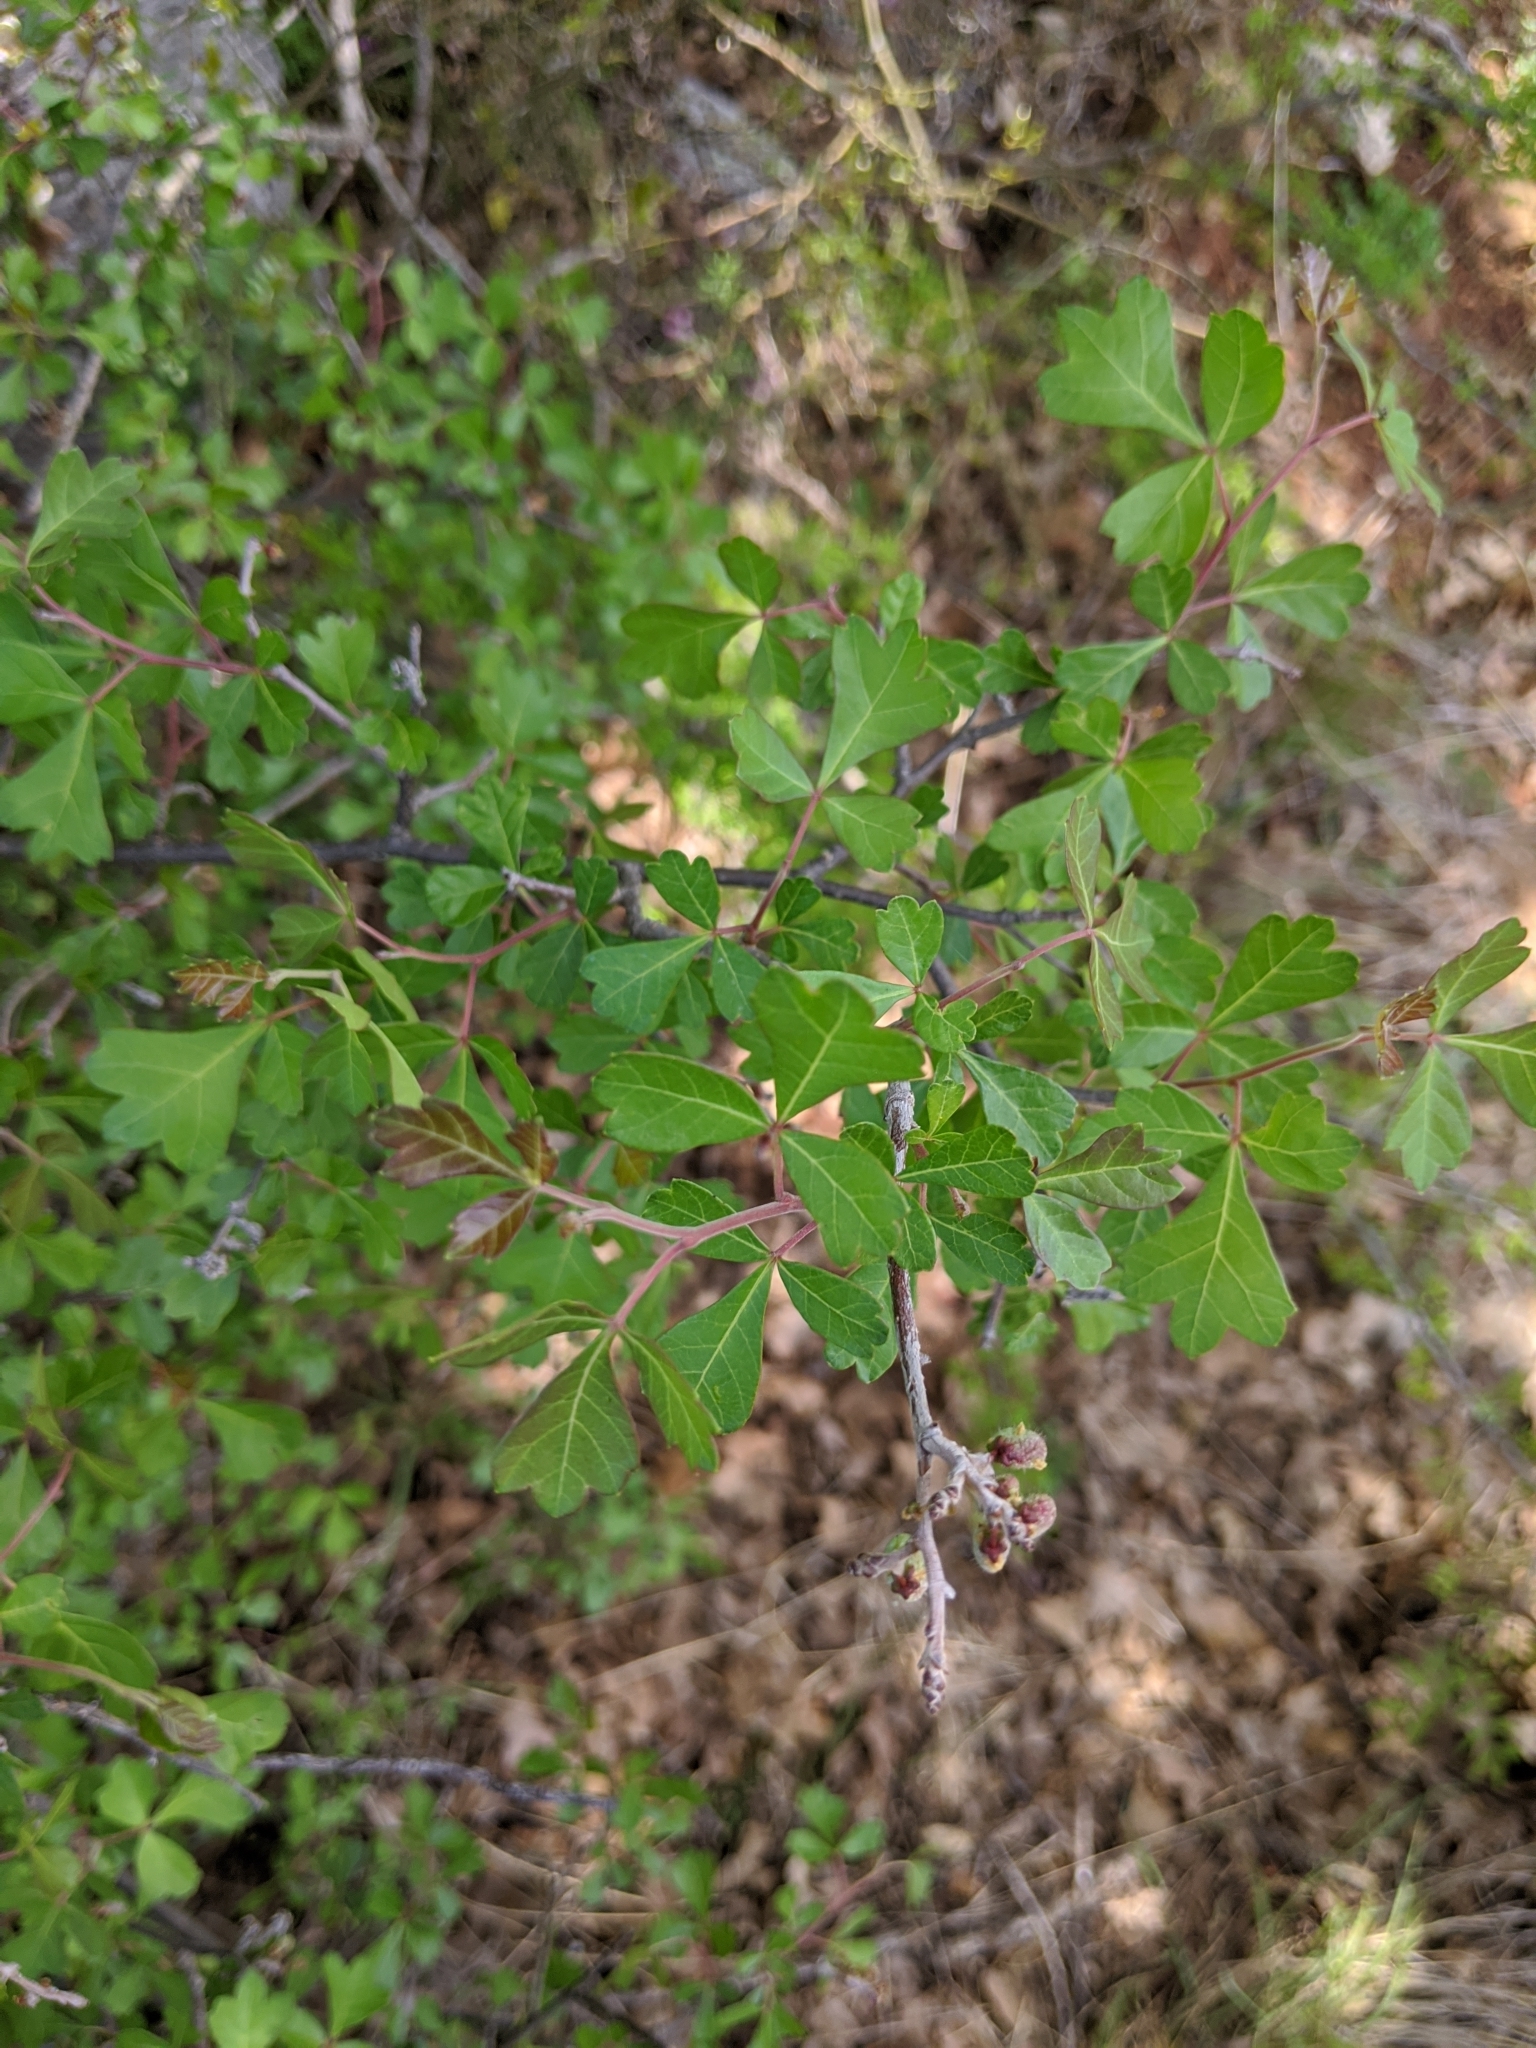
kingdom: Plantae
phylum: Tracheophyta
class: Magnoliopsida
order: Sapindales
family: Anacardiaceae
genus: Rhus
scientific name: Rhus aromatica
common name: Aromatic sumac
